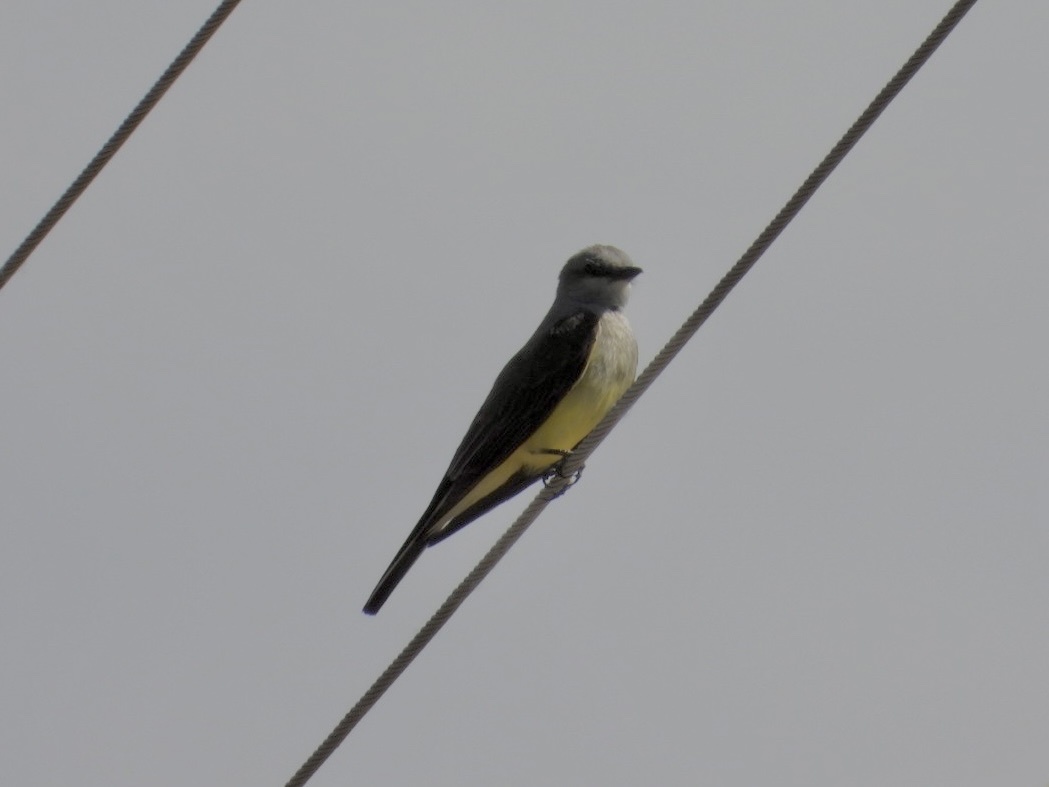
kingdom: Animalia
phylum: Chordata
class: Aves
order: Passeriformes
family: Tyrannidae
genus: Tyrannus
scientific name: Tyrannus verticalis
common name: Western kingbird
